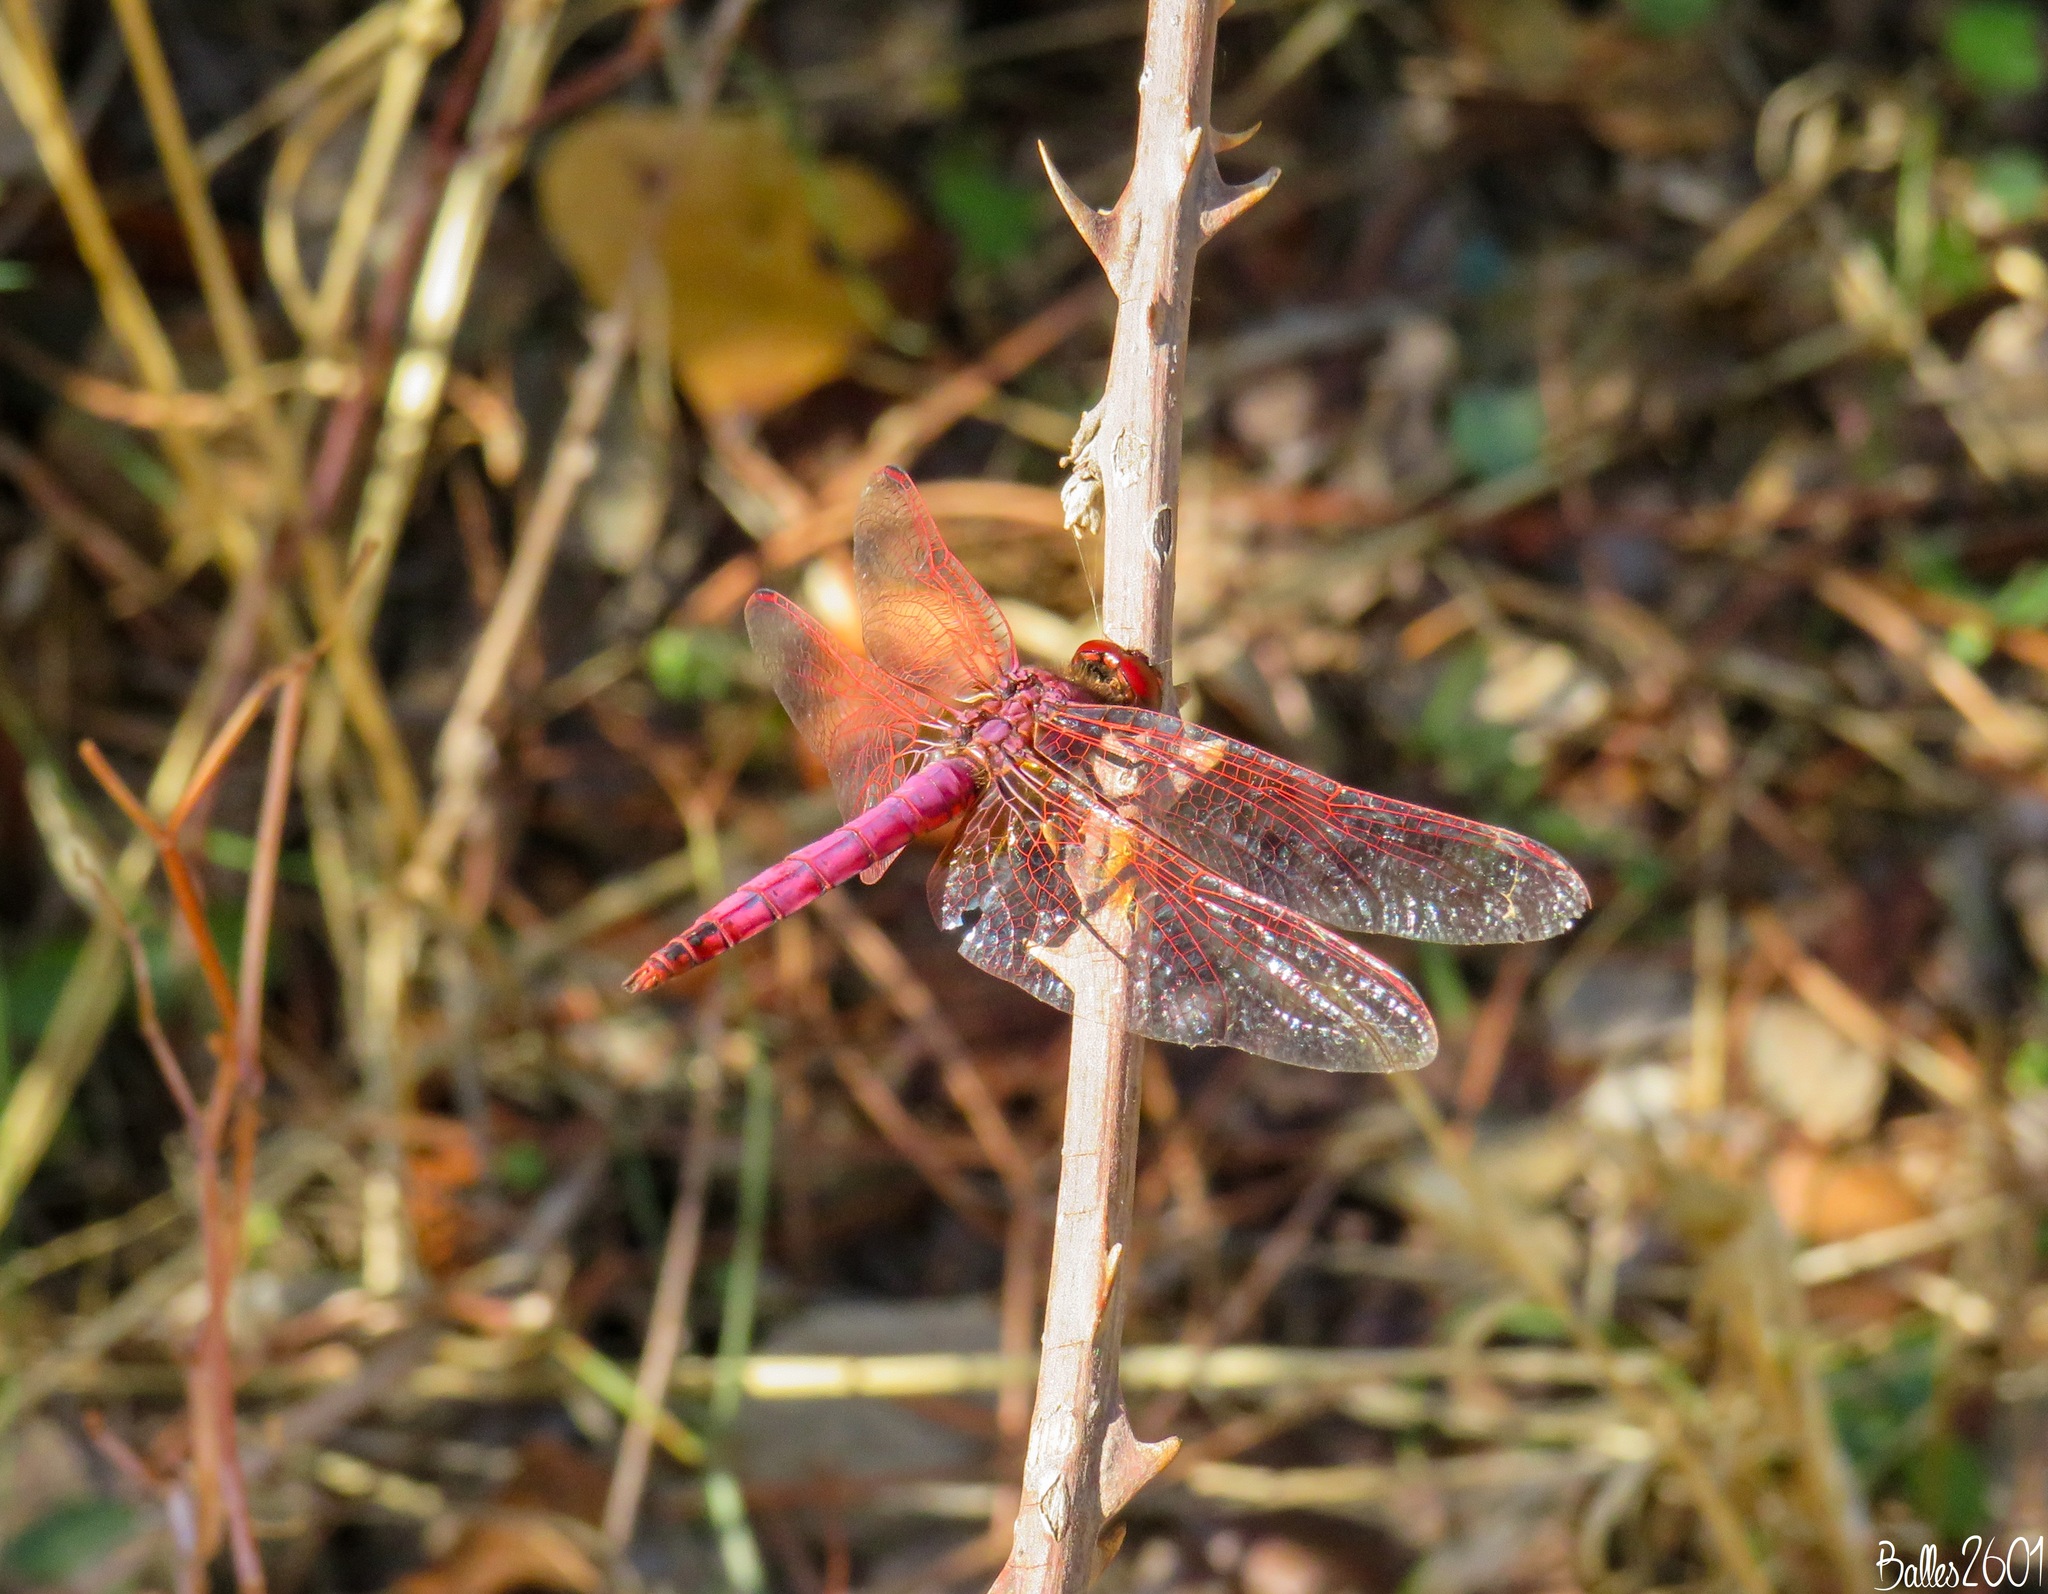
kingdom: Animalia
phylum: Arthropoda
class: Insecta
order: Odonata
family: Libellulidae
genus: Trithemis
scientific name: Trithemis annulata
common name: Violet dropwing
